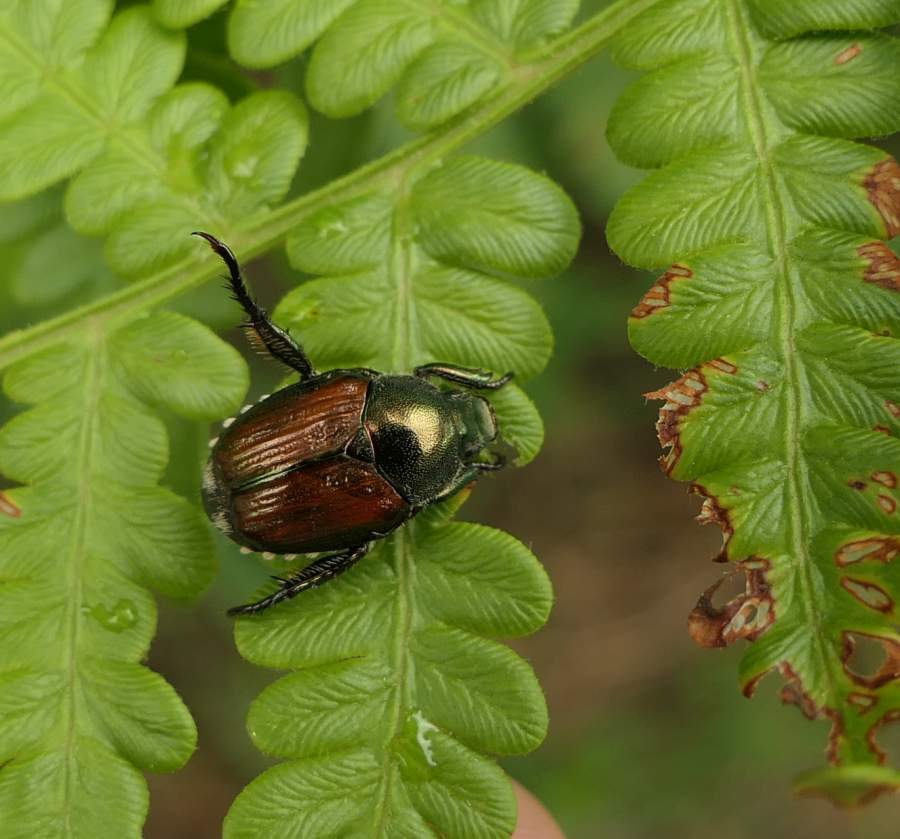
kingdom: Animalia
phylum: Arthropoda
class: Insecta
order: Coleoptera
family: Scarabaeidae
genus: Popillia
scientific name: Popillia japonica
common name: Japanese beetle
